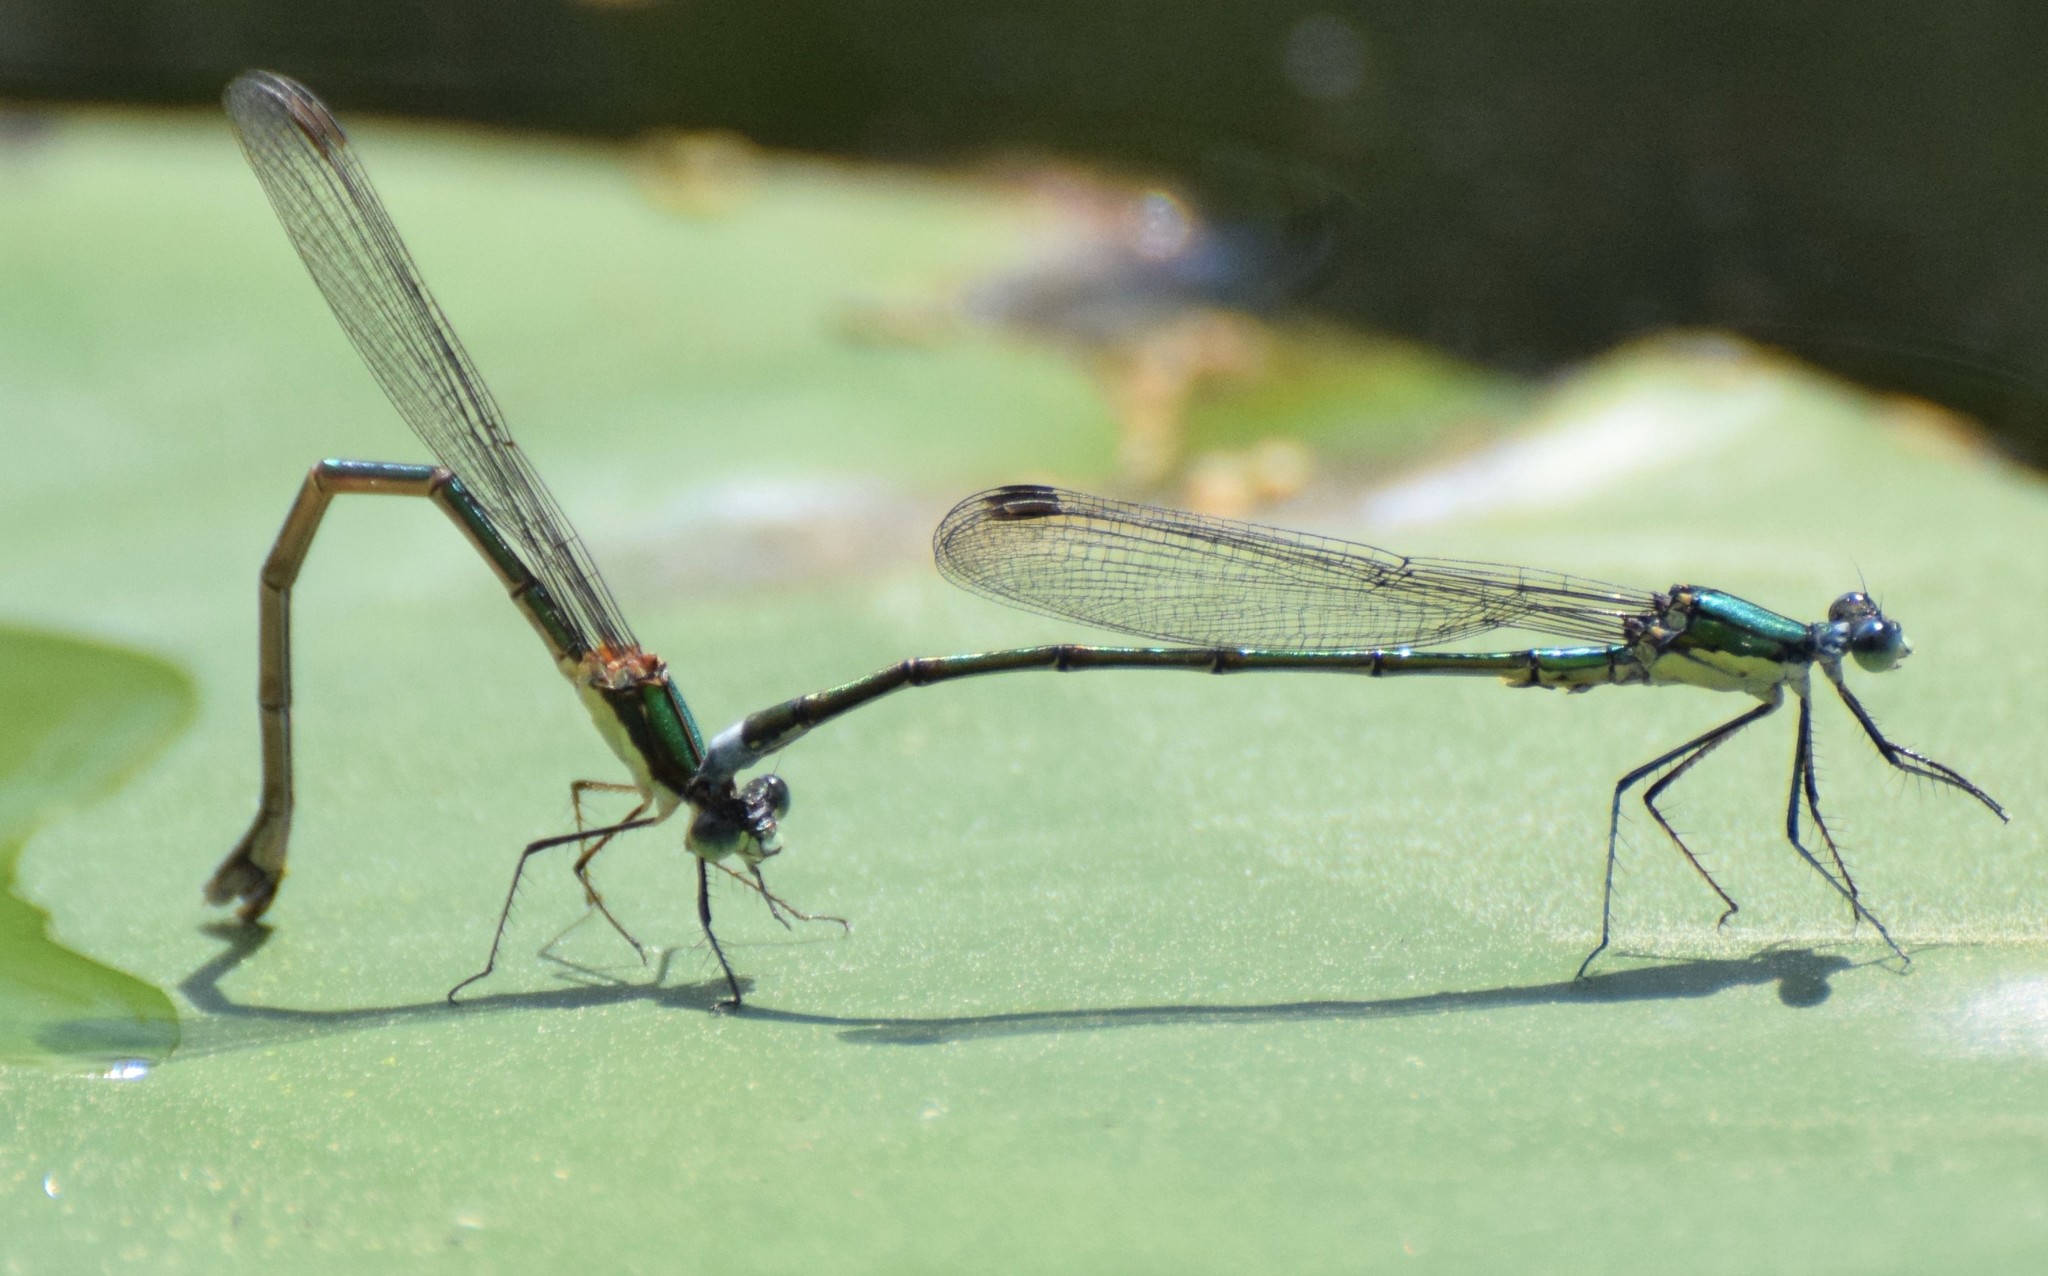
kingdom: Animalia
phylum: Arthropoda
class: Insecta
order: Odonata
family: Lestidae
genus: Lestes
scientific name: Lestes inaequalis
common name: Elegant spreadwing
